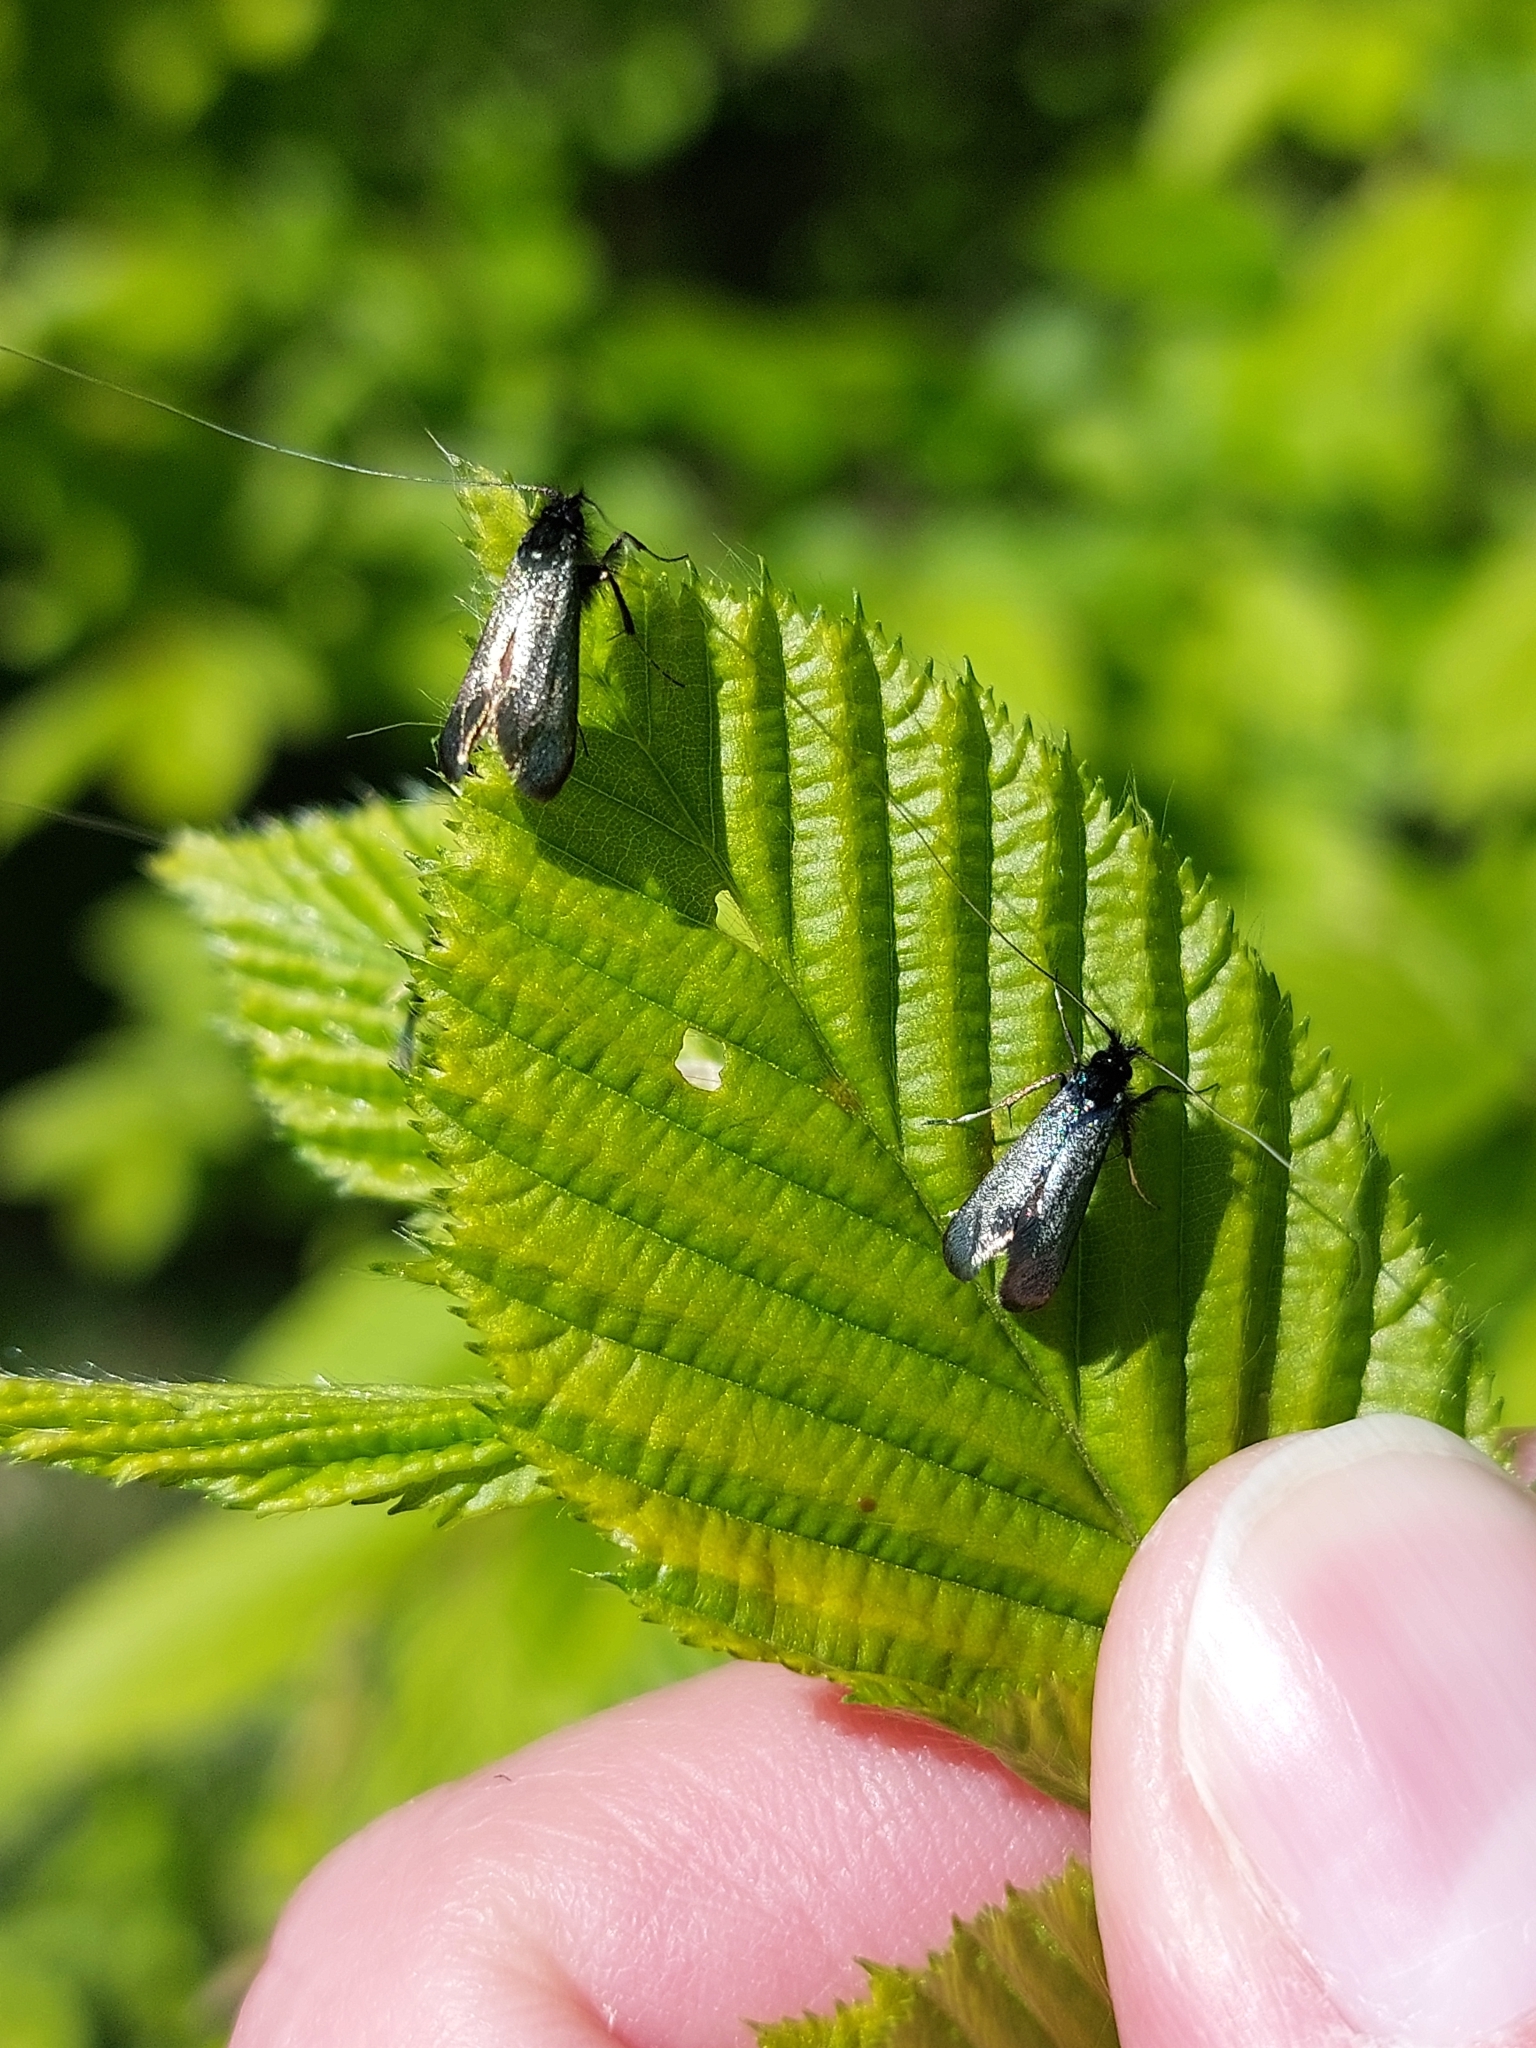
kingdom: Animalia
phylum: Arthropoda
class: Insecta
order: Lepidoptera
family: Adelidae
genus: Adela
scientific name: Adela viridella
